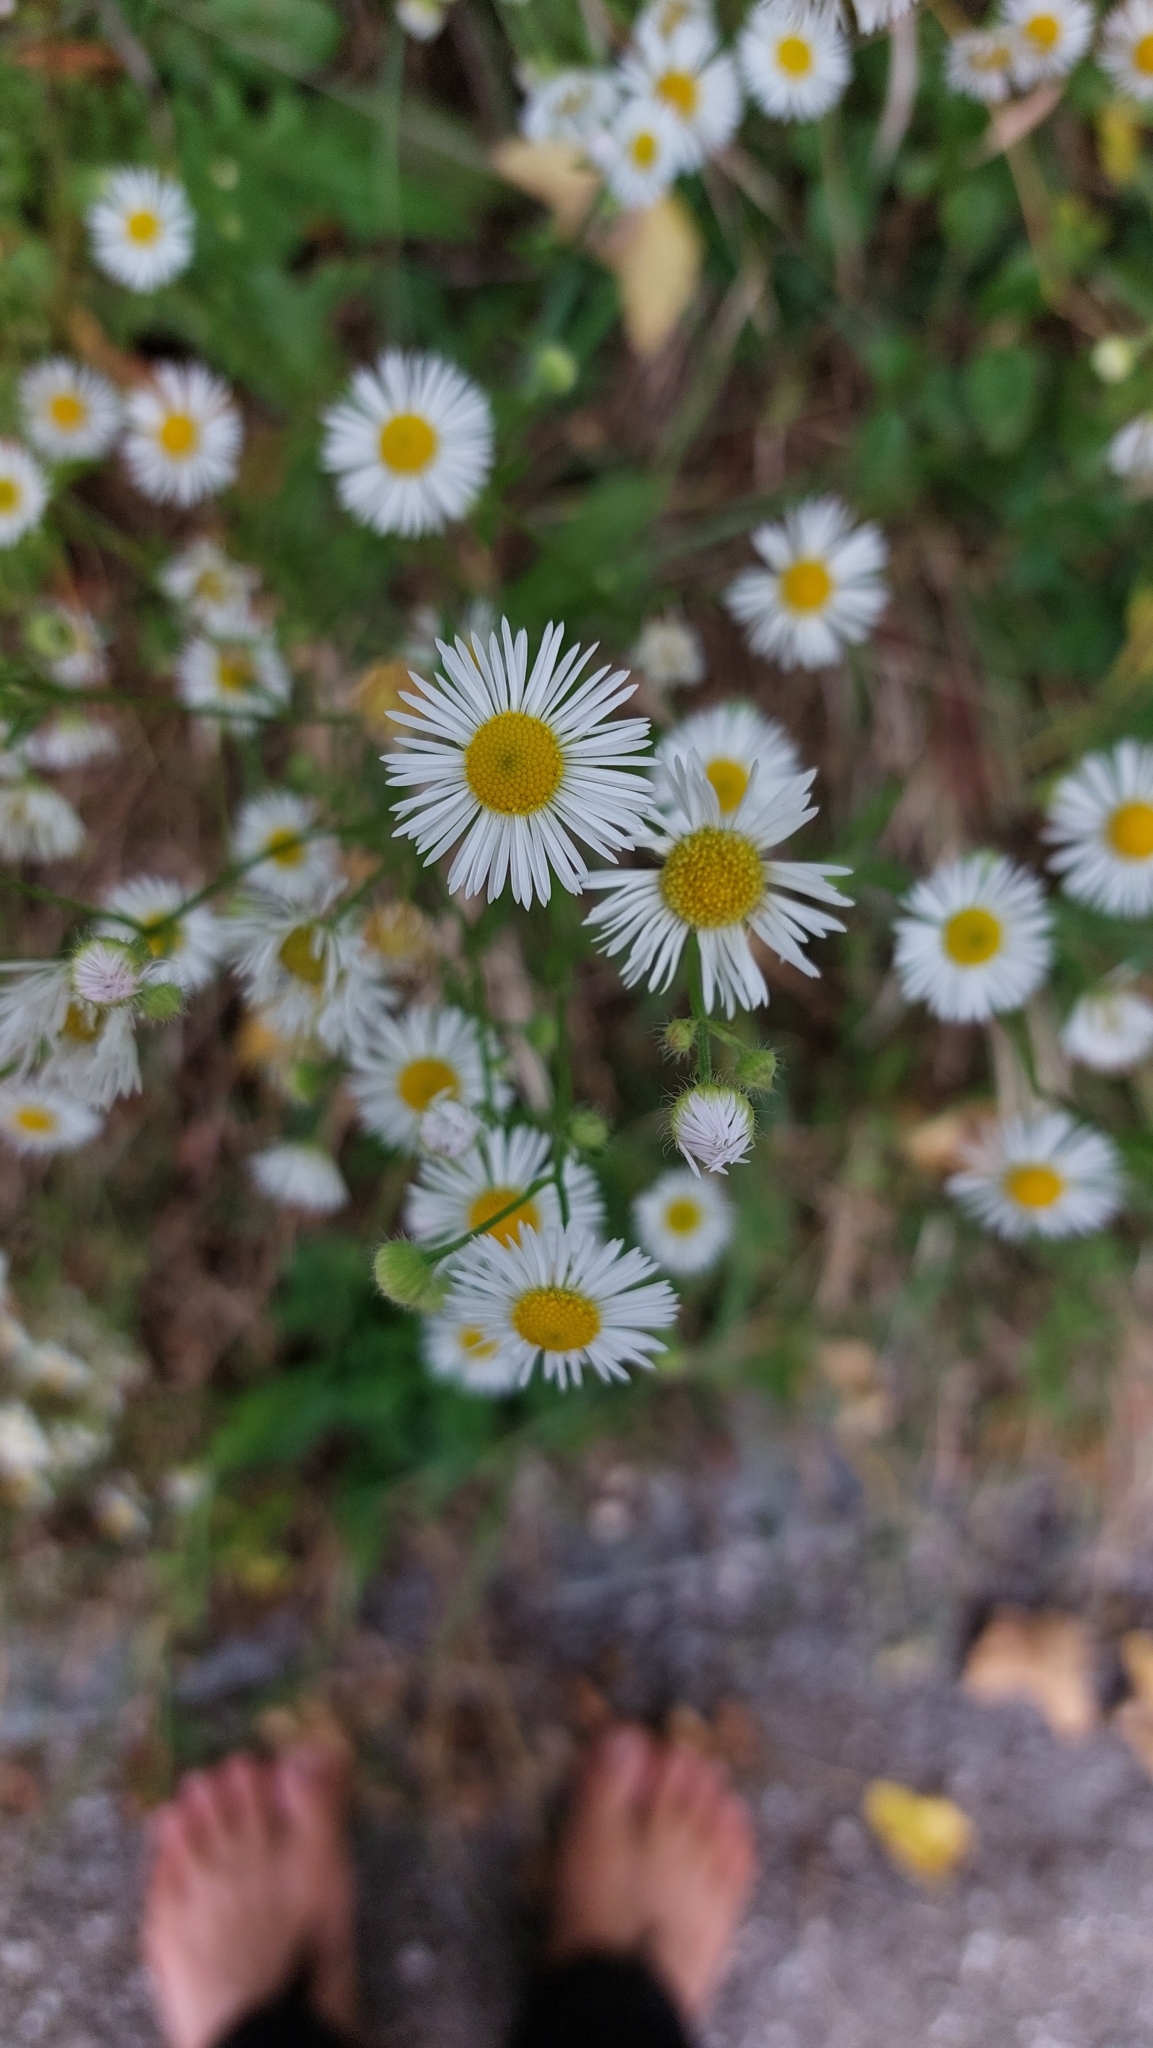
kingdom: Plantae
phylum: Tracheophyta
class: Magnoliopsida
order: Asterales
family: Asteraceae
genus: Erigeron
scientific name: Erigeron annuus
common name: Tall fleabane
